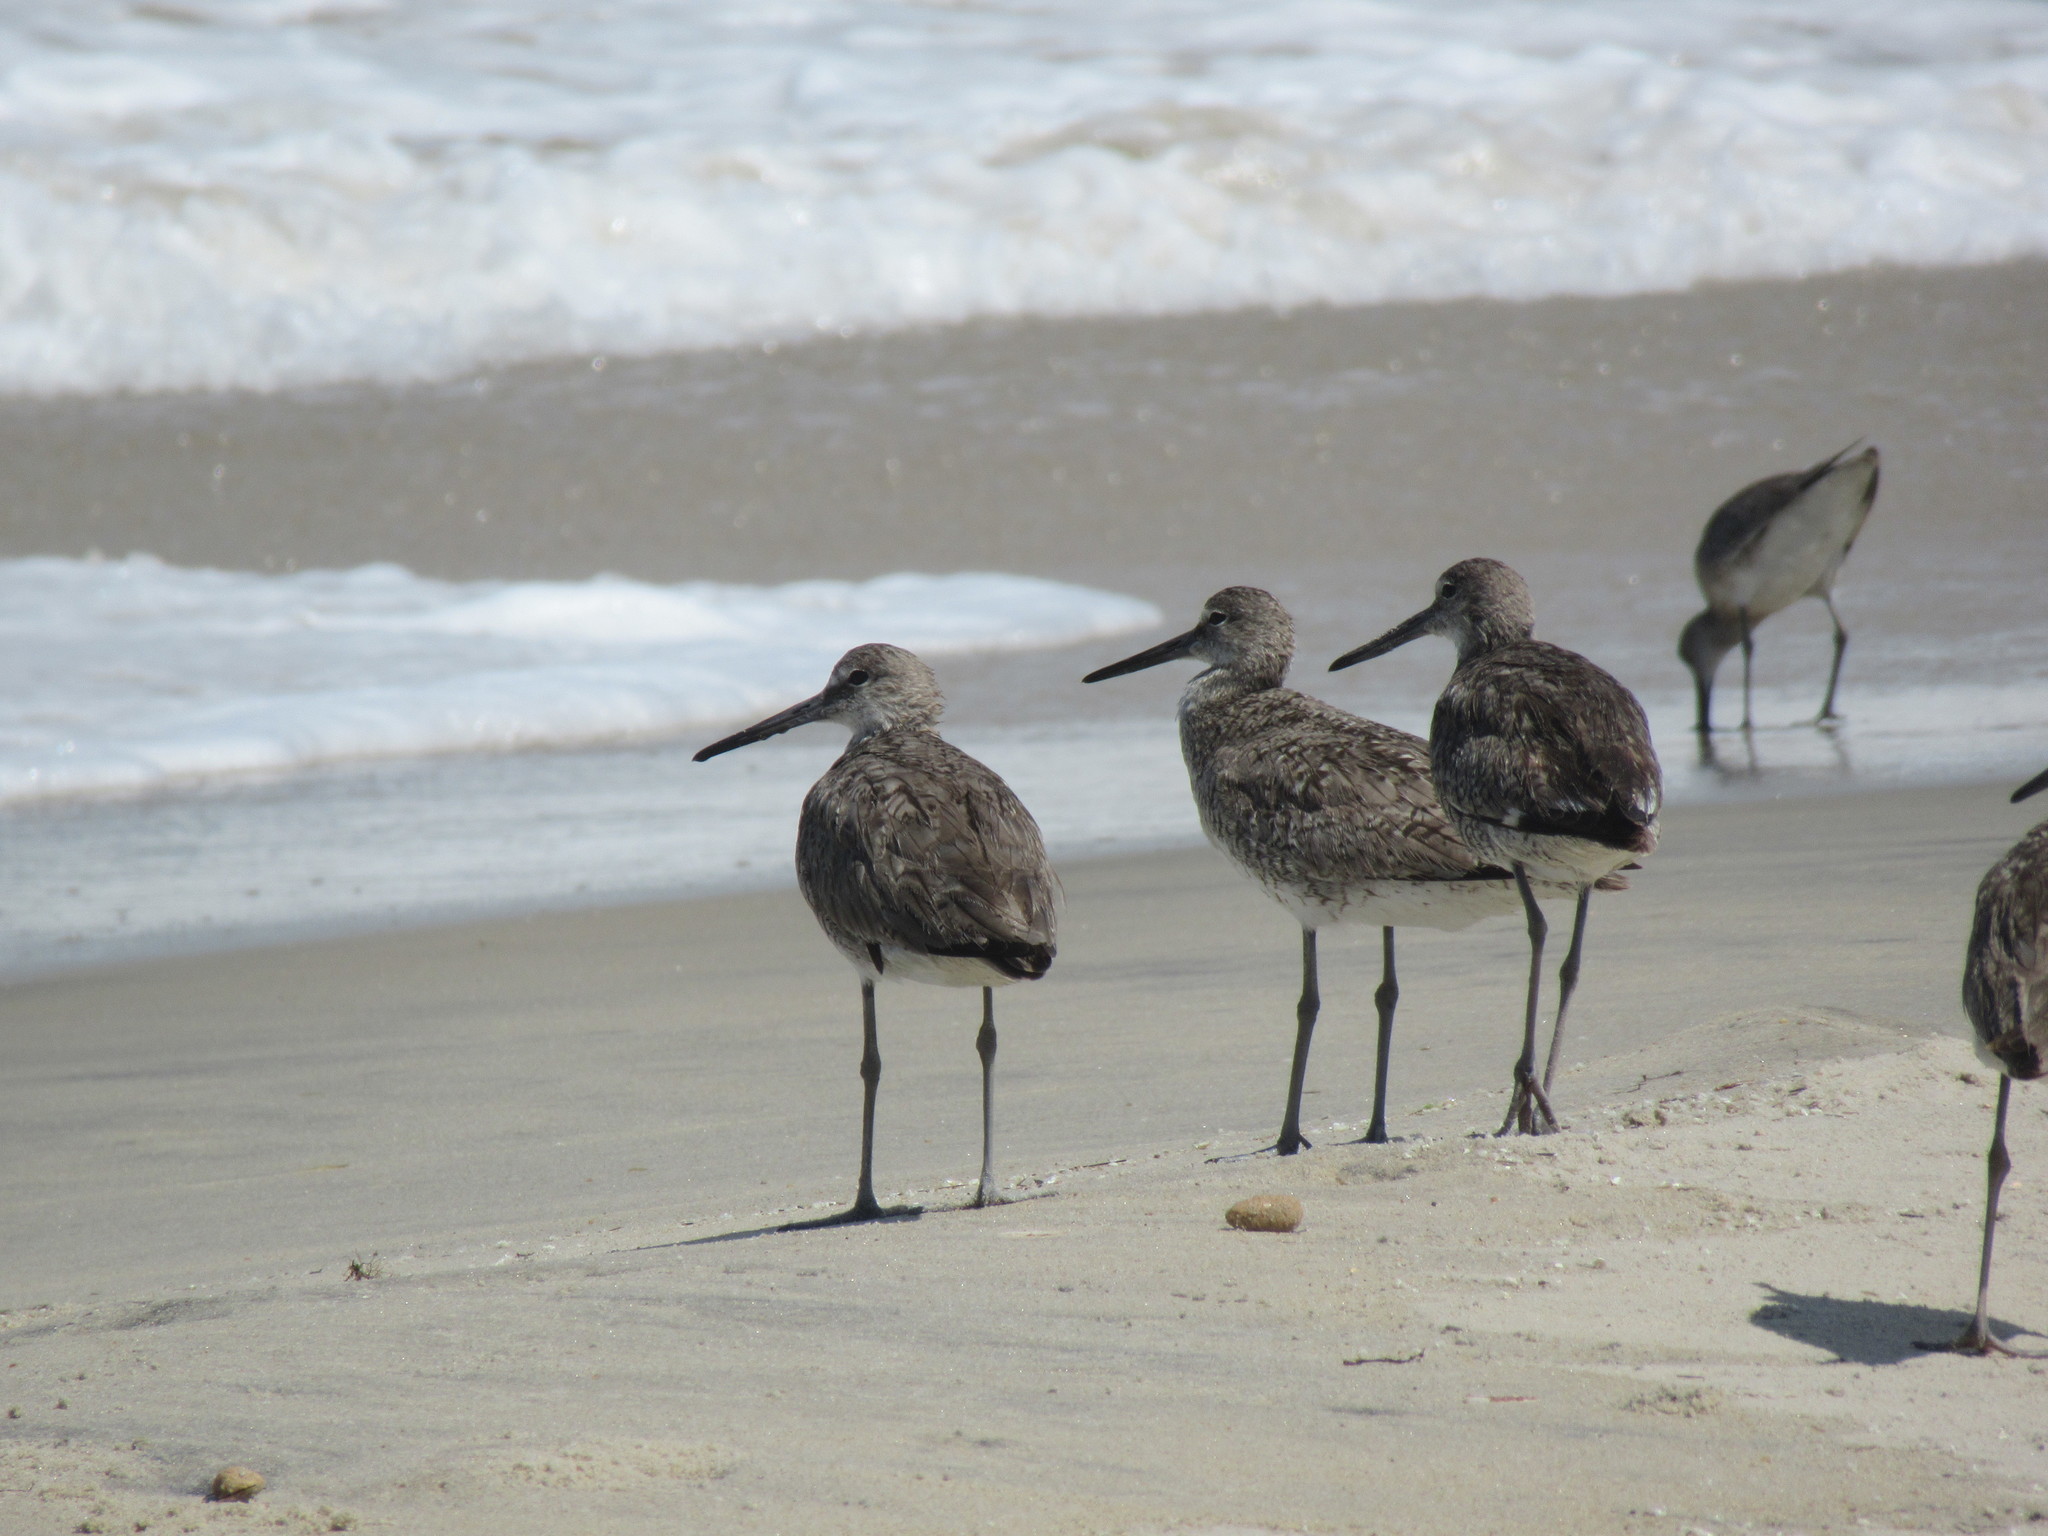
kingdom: Animalia
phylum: Chordata
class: Aves
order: Charadriiformes
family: Scolopacidae
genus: Tringa
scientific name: Tringa semipalmata
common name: Willet
